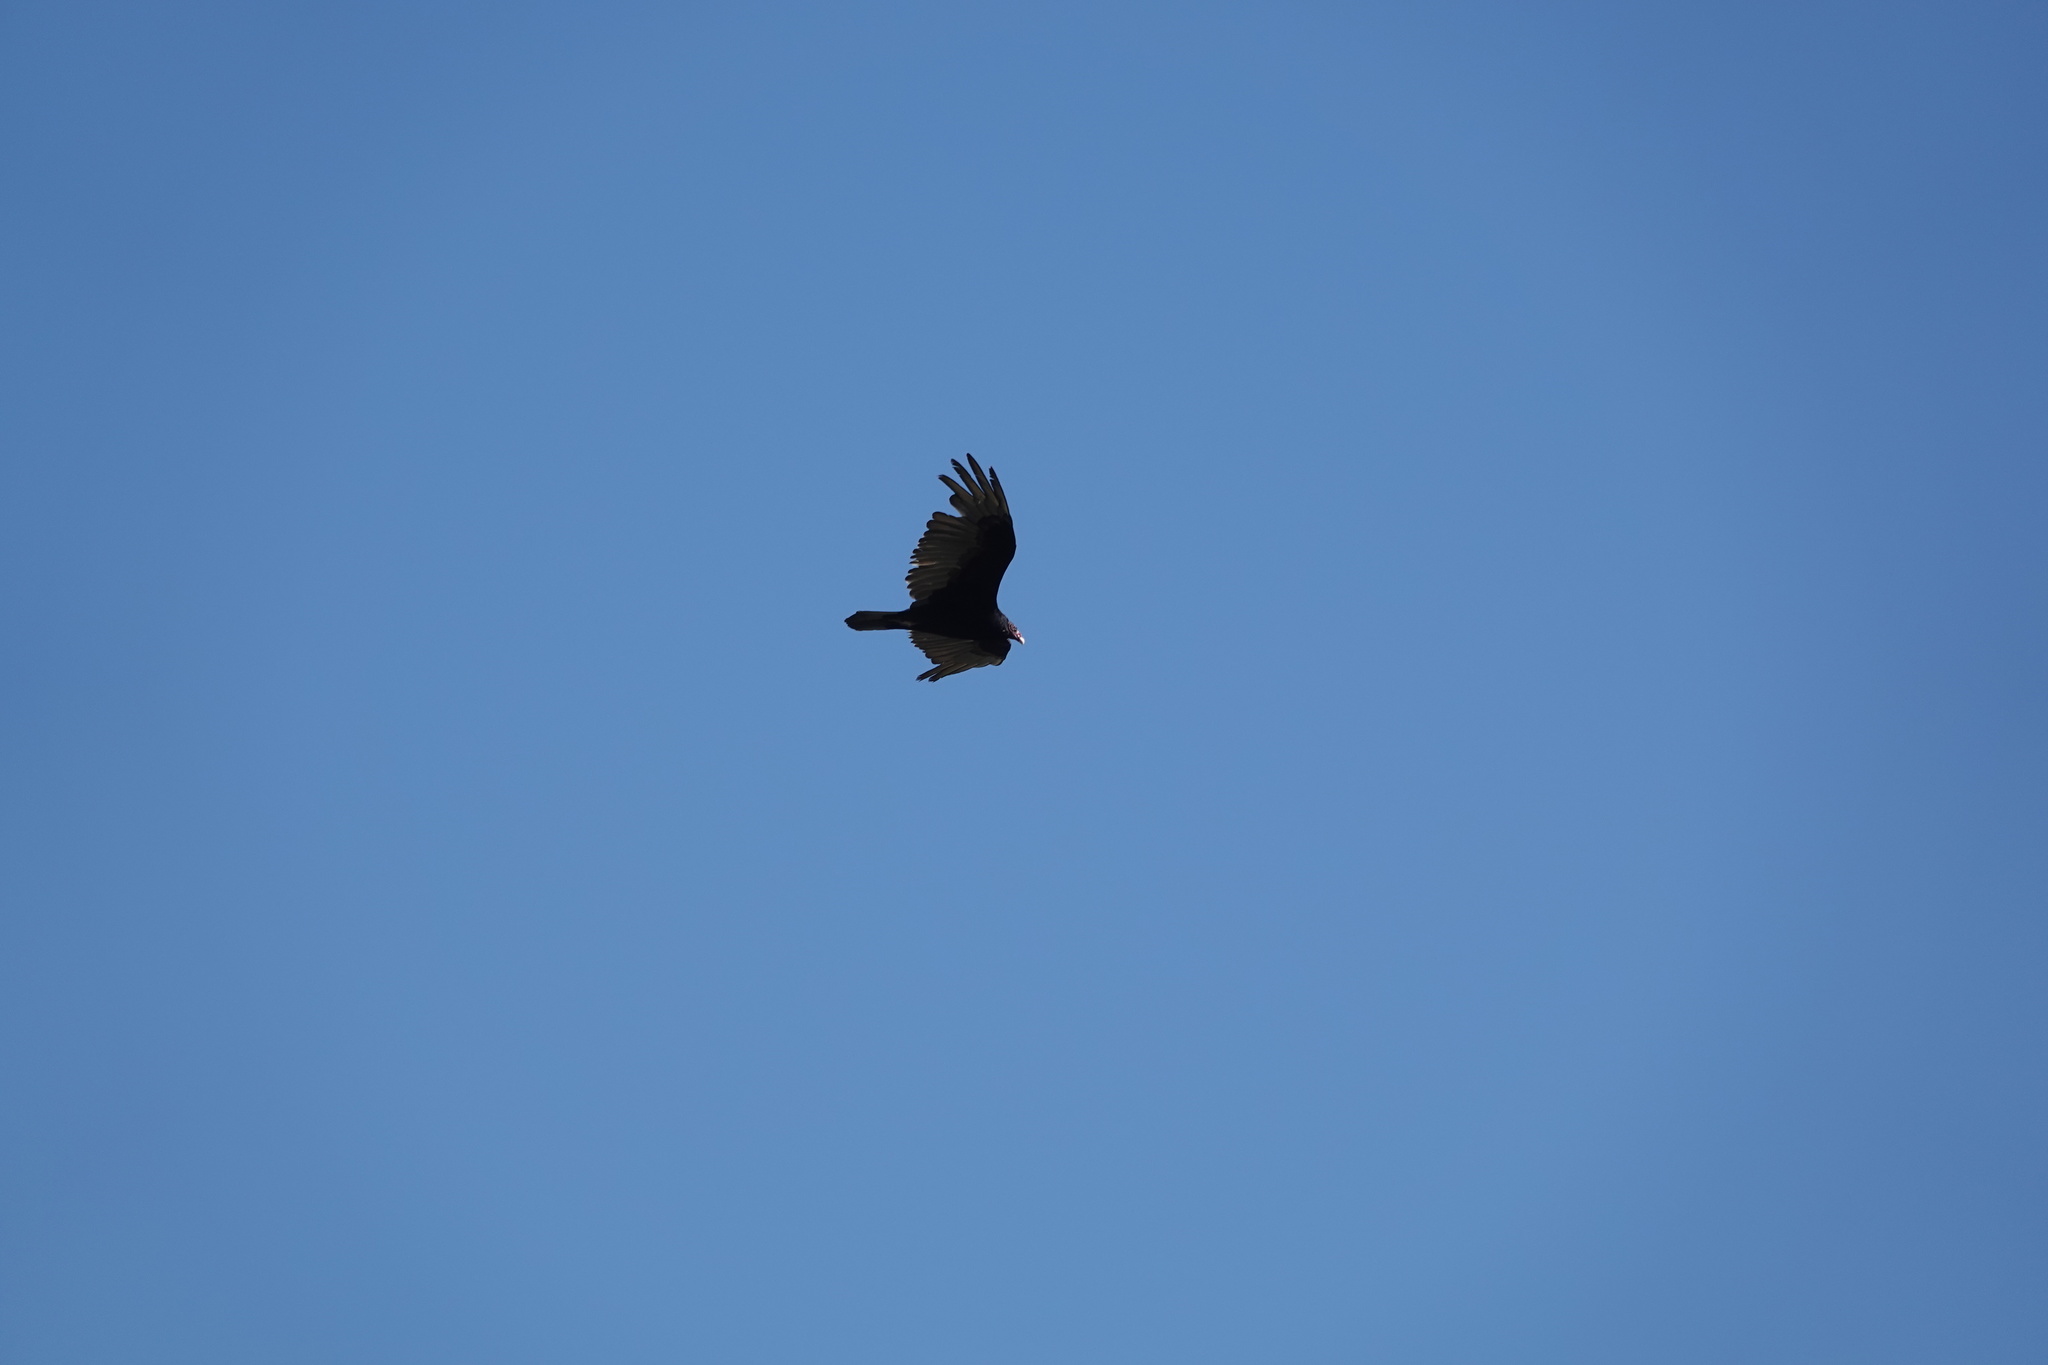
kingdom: Animalia
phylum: Chordata
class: Aves
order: Accipitriformes
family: Cathartidae
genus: Cathartes
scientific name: Cathartes aura
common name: Turkey vulture
